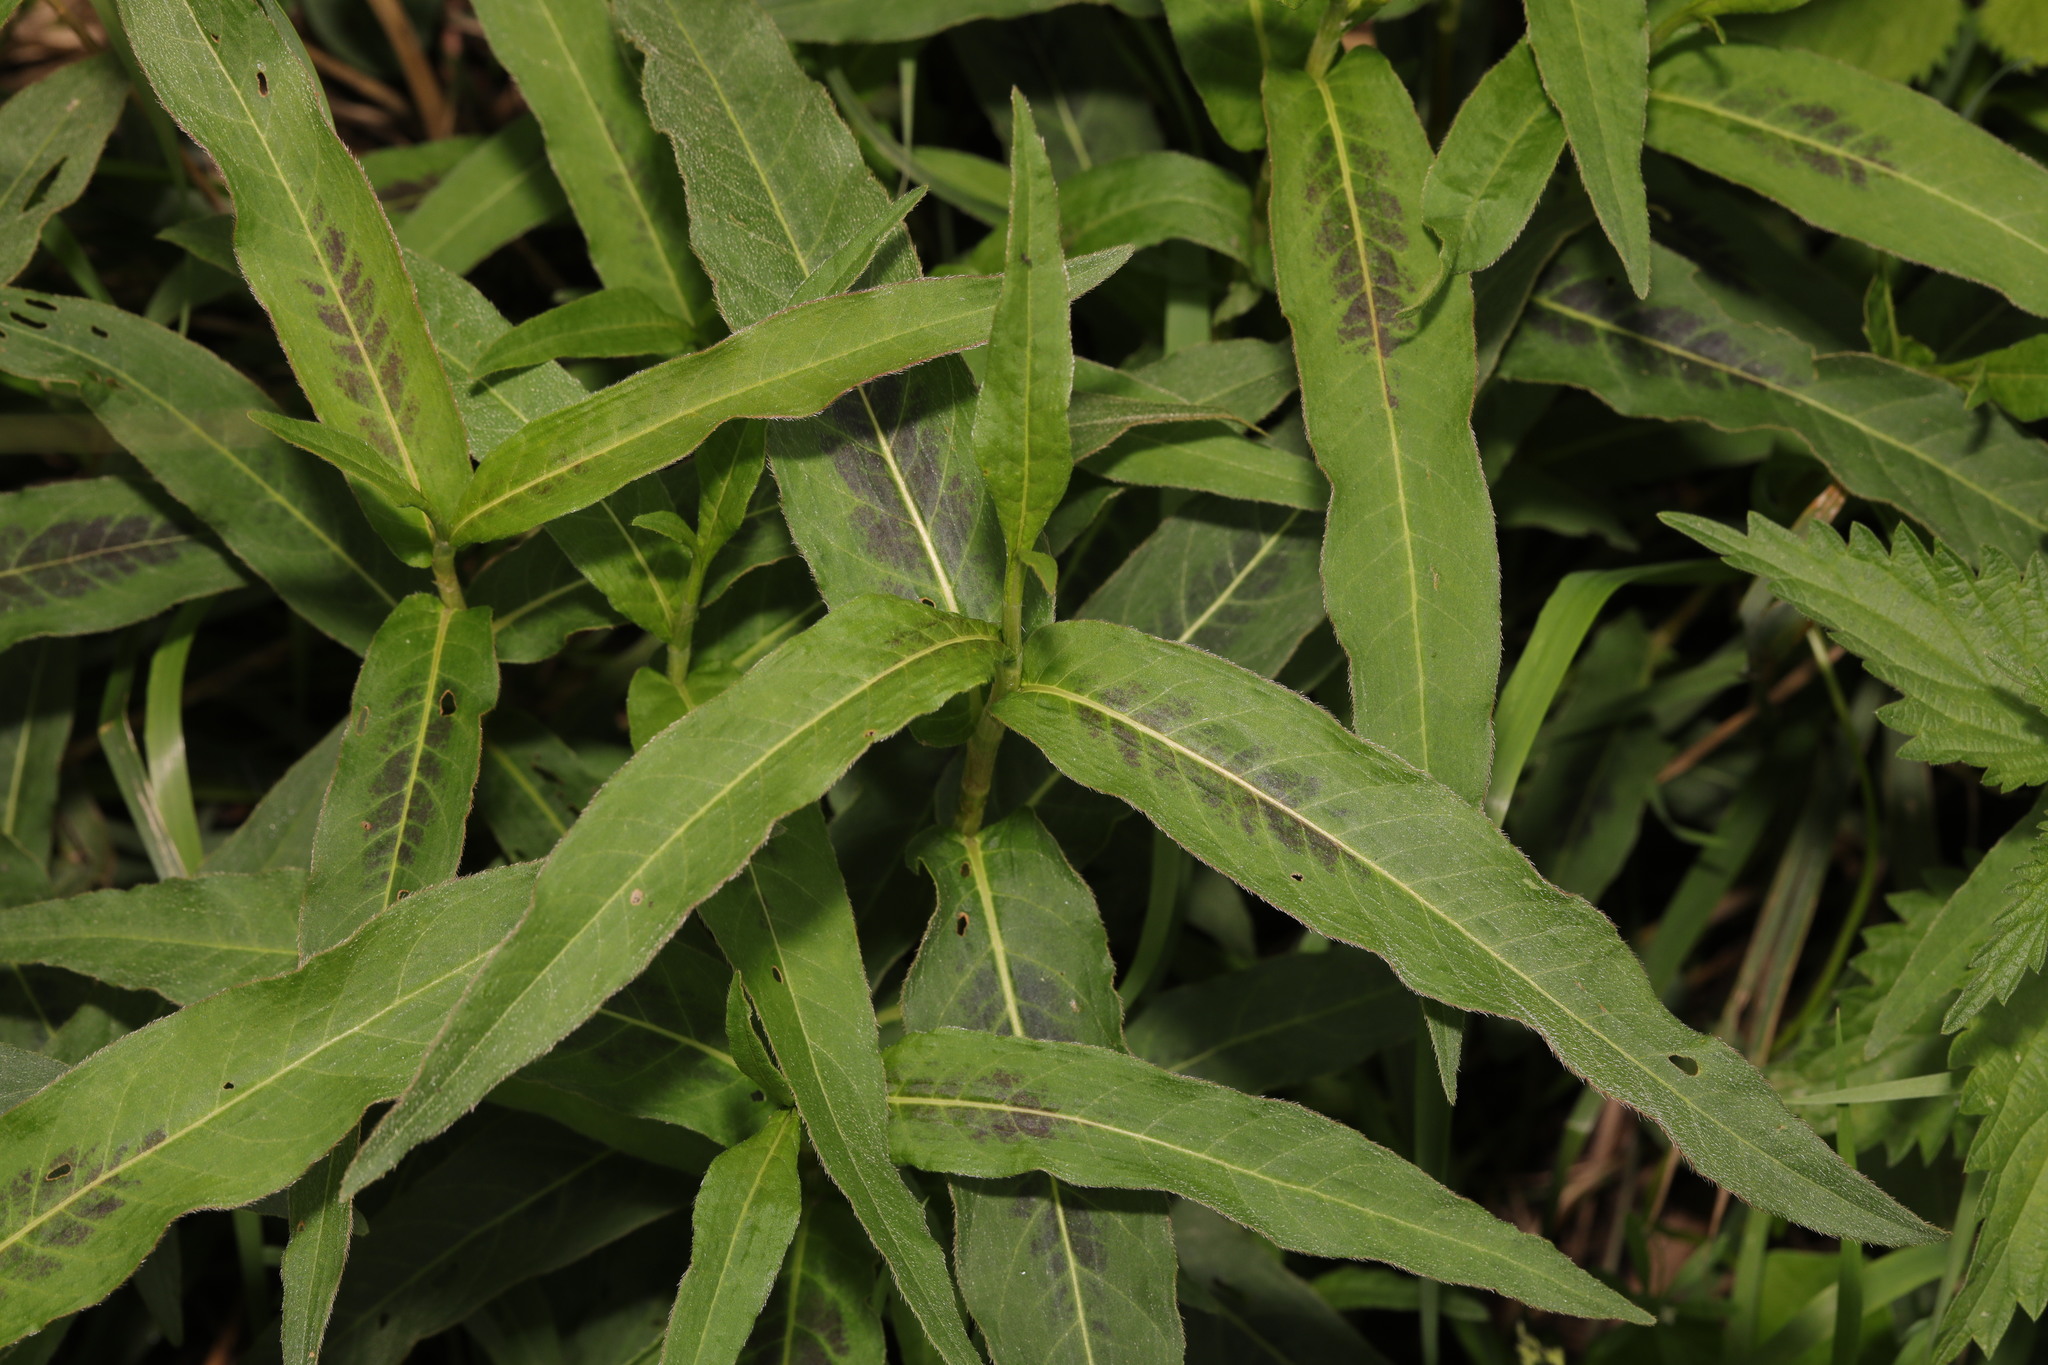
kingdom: Plantae
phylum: Tracheophyta
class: Magnoliopsida
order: Caryophyllales
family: Polygonaceae
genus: Persicaria
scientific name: Persicaria maculosa
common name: Redshank
